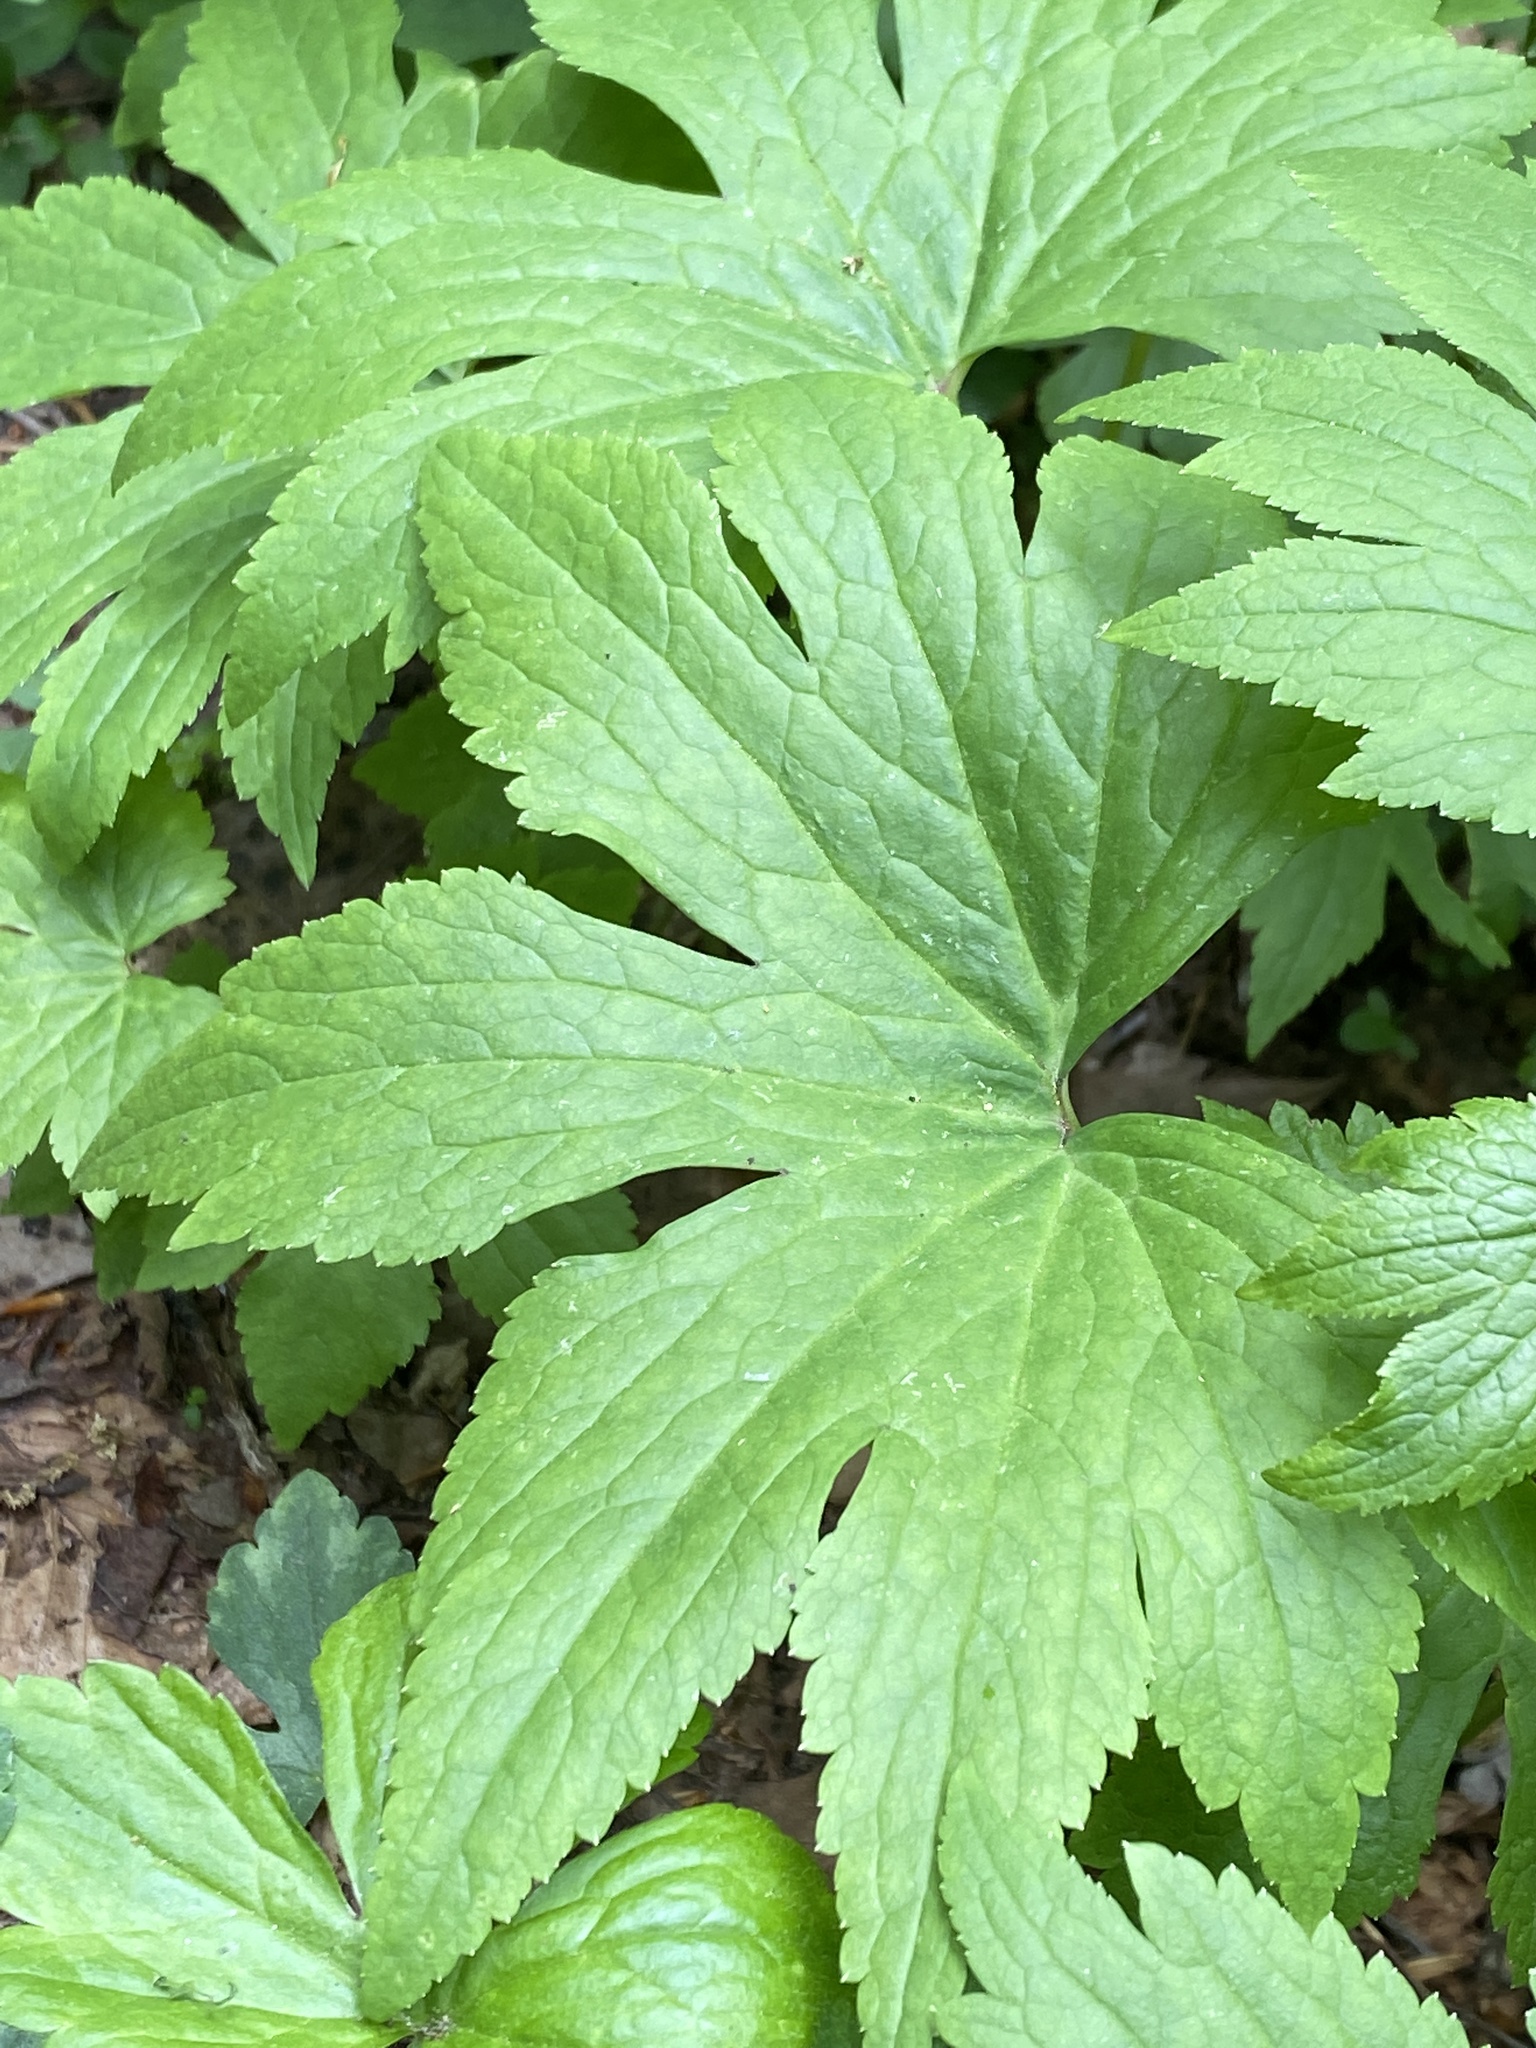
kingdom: Plantae
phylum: Tracheophyta
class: Magnoliopsida
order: Ranunculales
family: Ranunculaceae
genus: Trautvetteria
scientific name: Trautvetteria carolinensis
